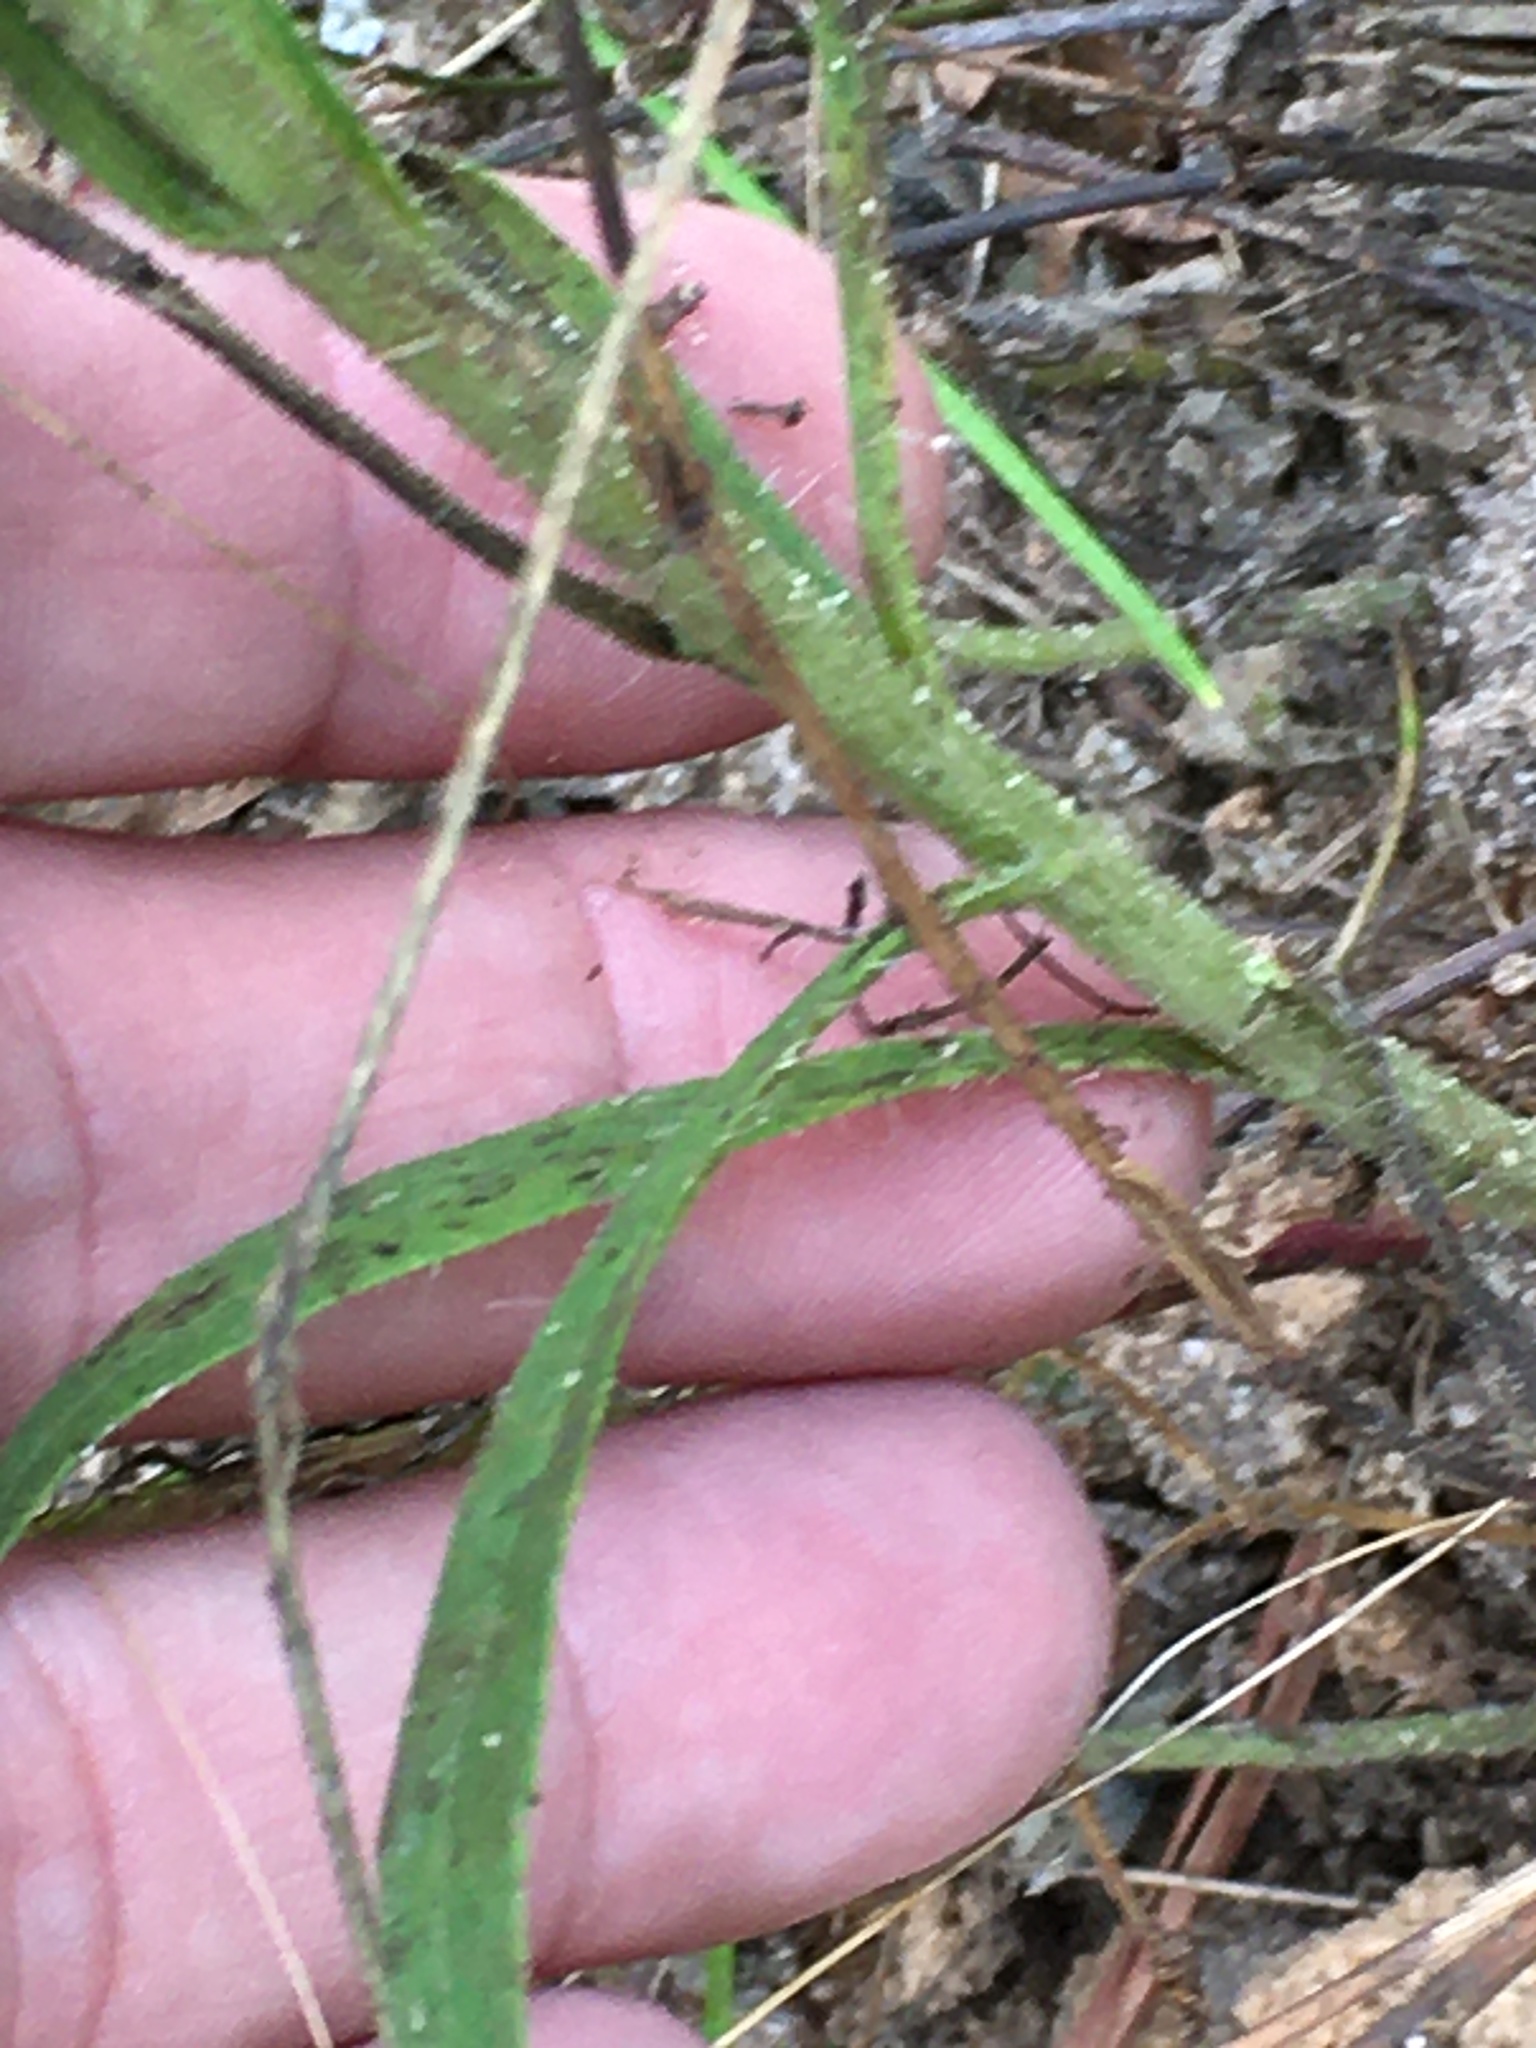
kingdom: Plantae
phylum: Tracheophyta
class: Magnoliopsida
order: Asterales
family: Asteraceae
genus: Croptilon
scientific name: Croptilon divaricatum
